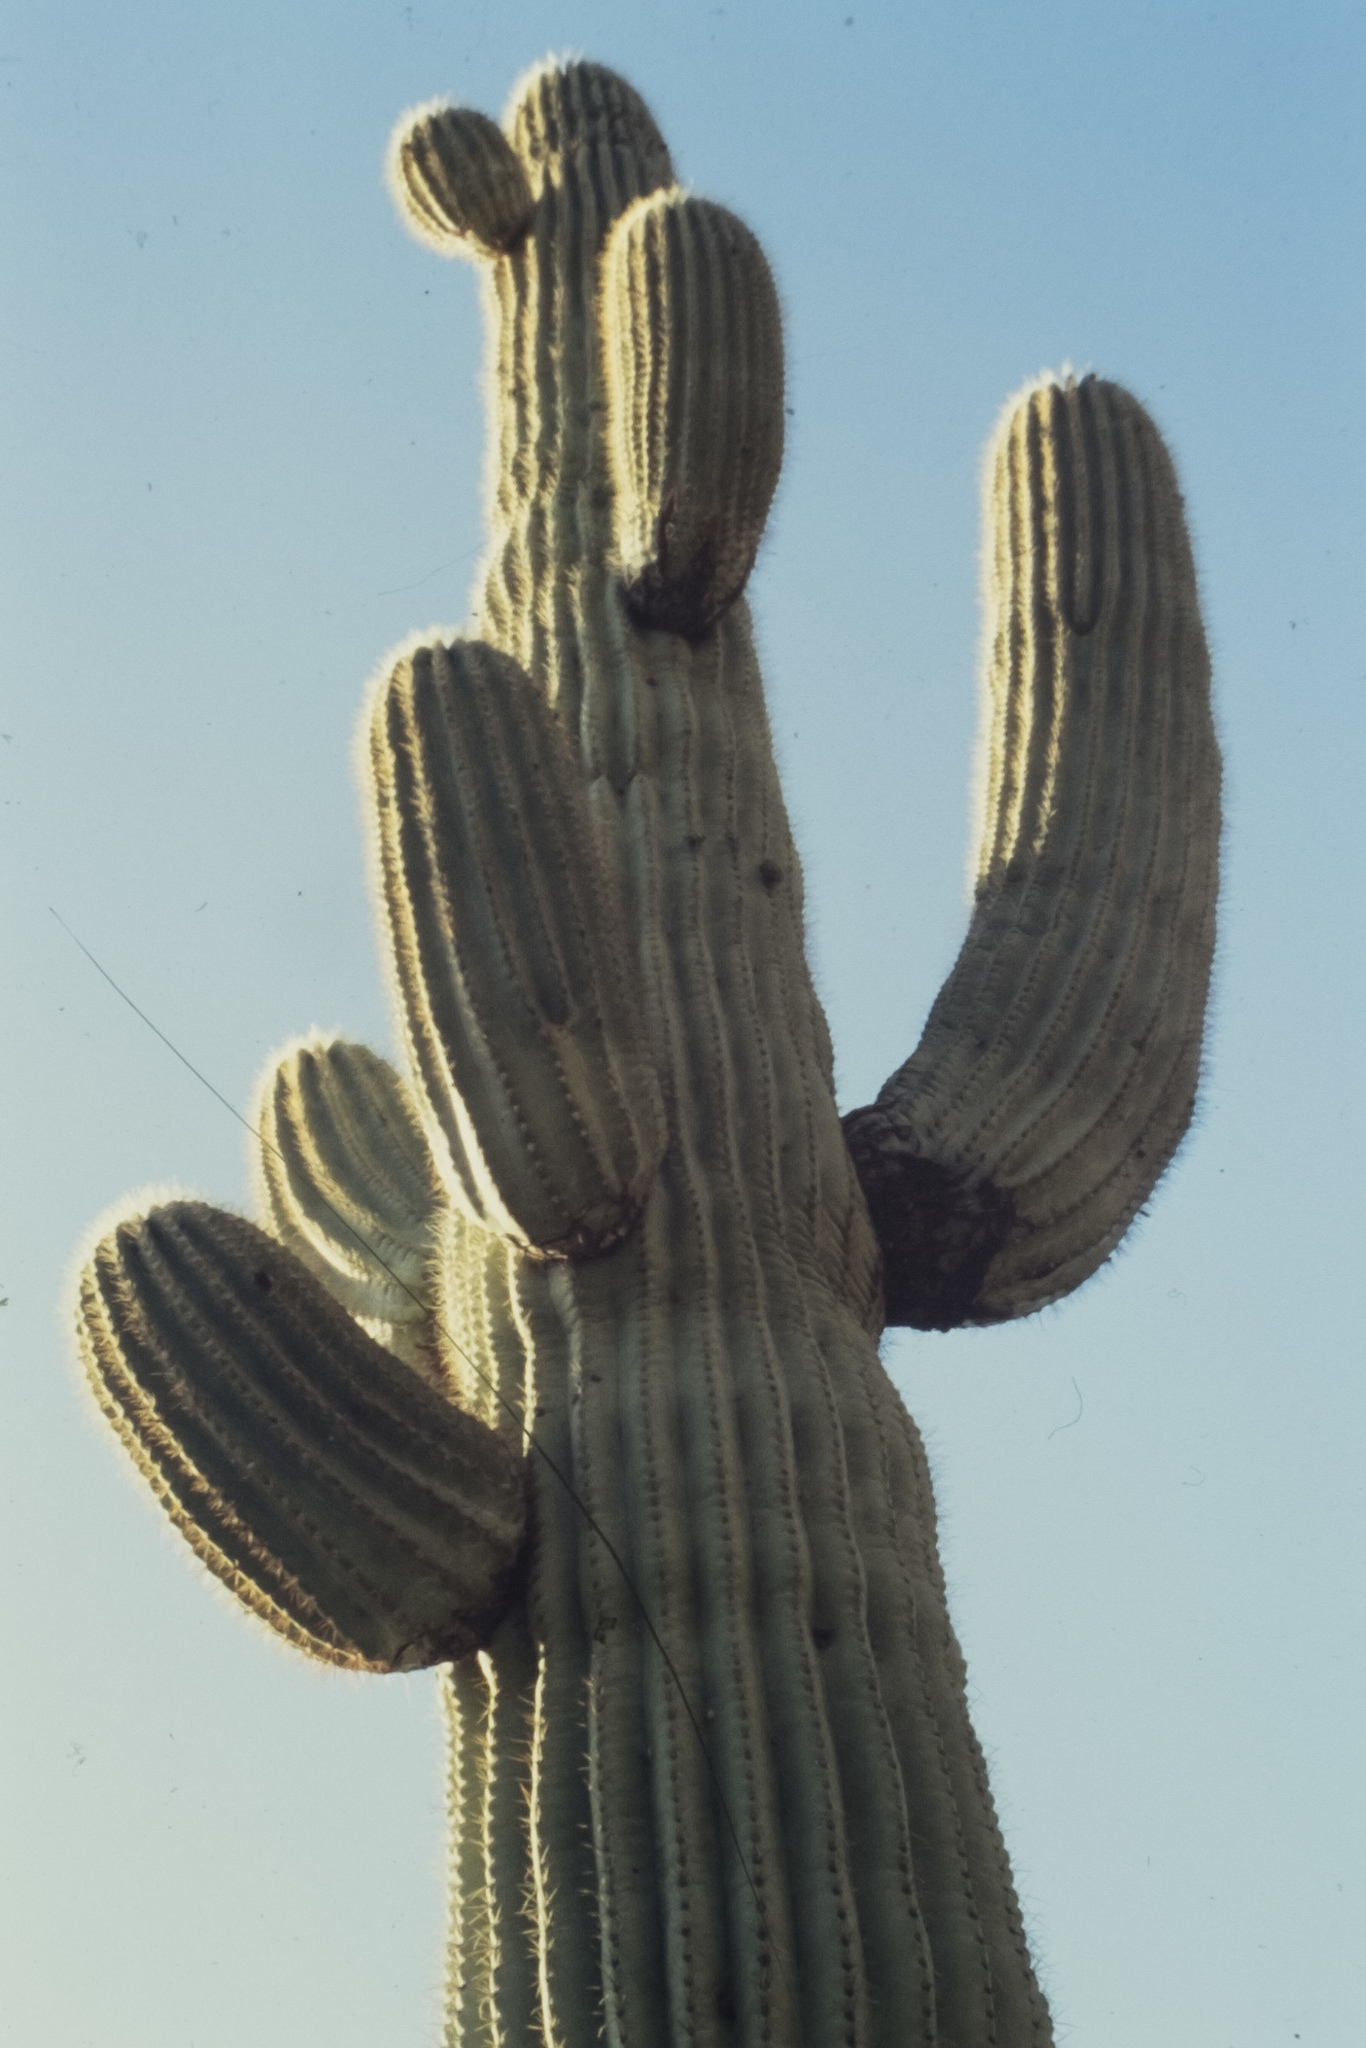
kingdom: Plantae
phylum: Tracheophyta
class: Magnoliopsida
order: Caryophyllales
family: Cactaceae
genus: Carnegiea
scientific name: Carnegiea gigantea
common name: Saguaro
